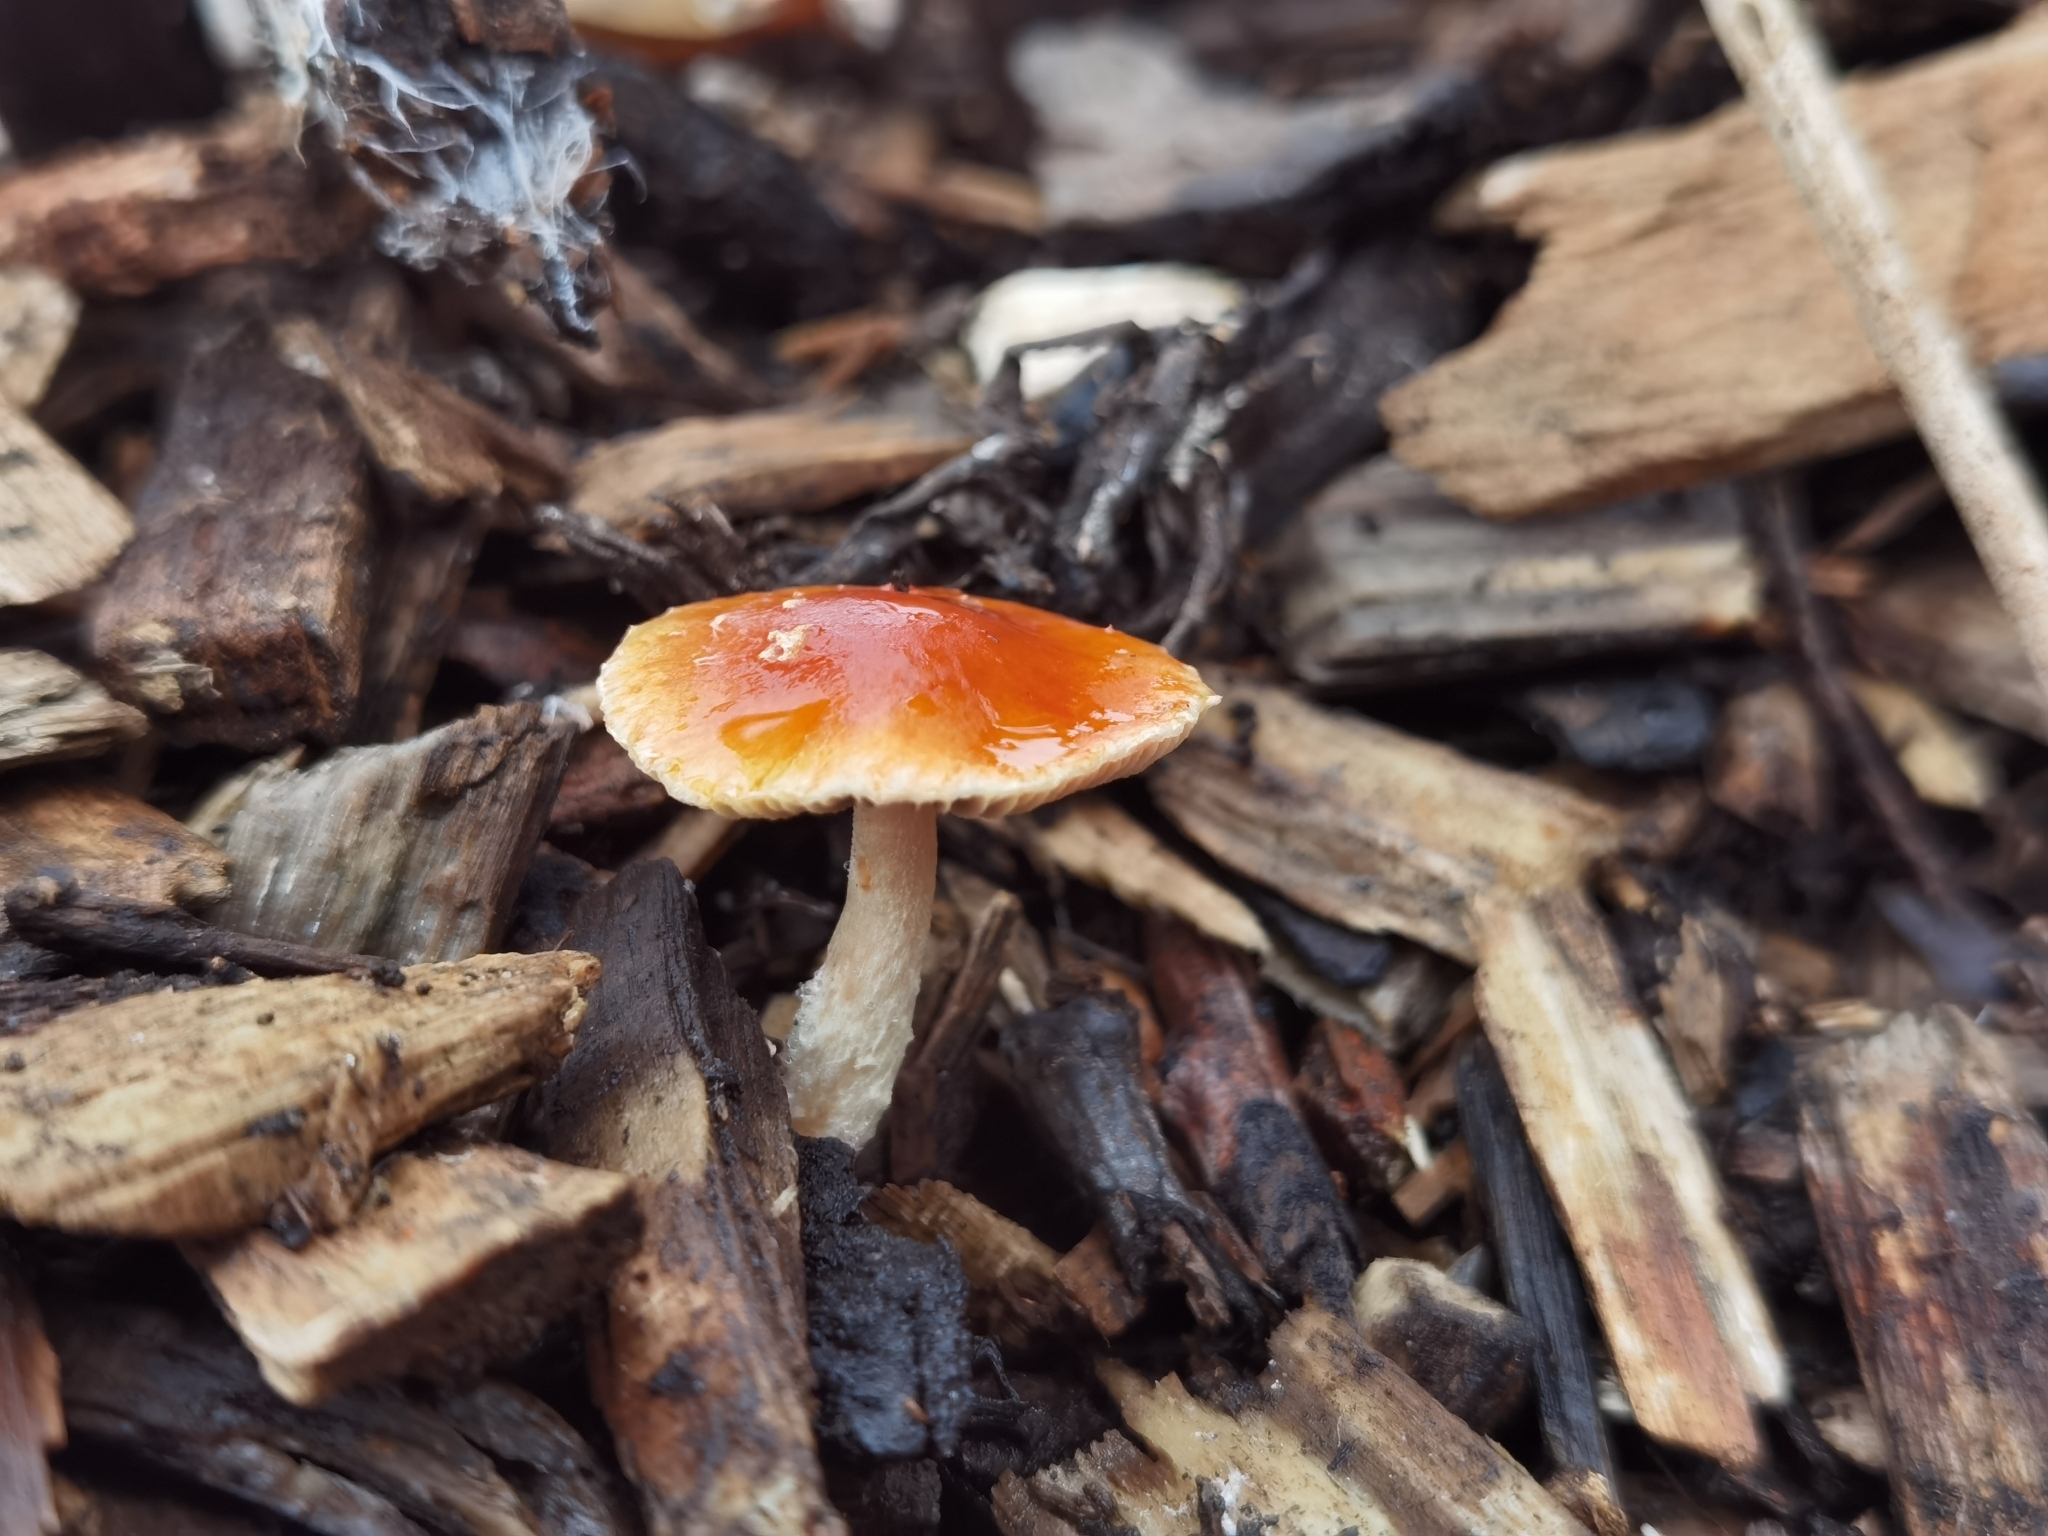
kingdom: Fungi
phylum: Basidiomycota
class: Agaricomycetes
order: Agaricales
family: Strophariaceae
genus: Leratiomyces
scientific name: Leratiomyces ceres
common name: Redlead roundhead
